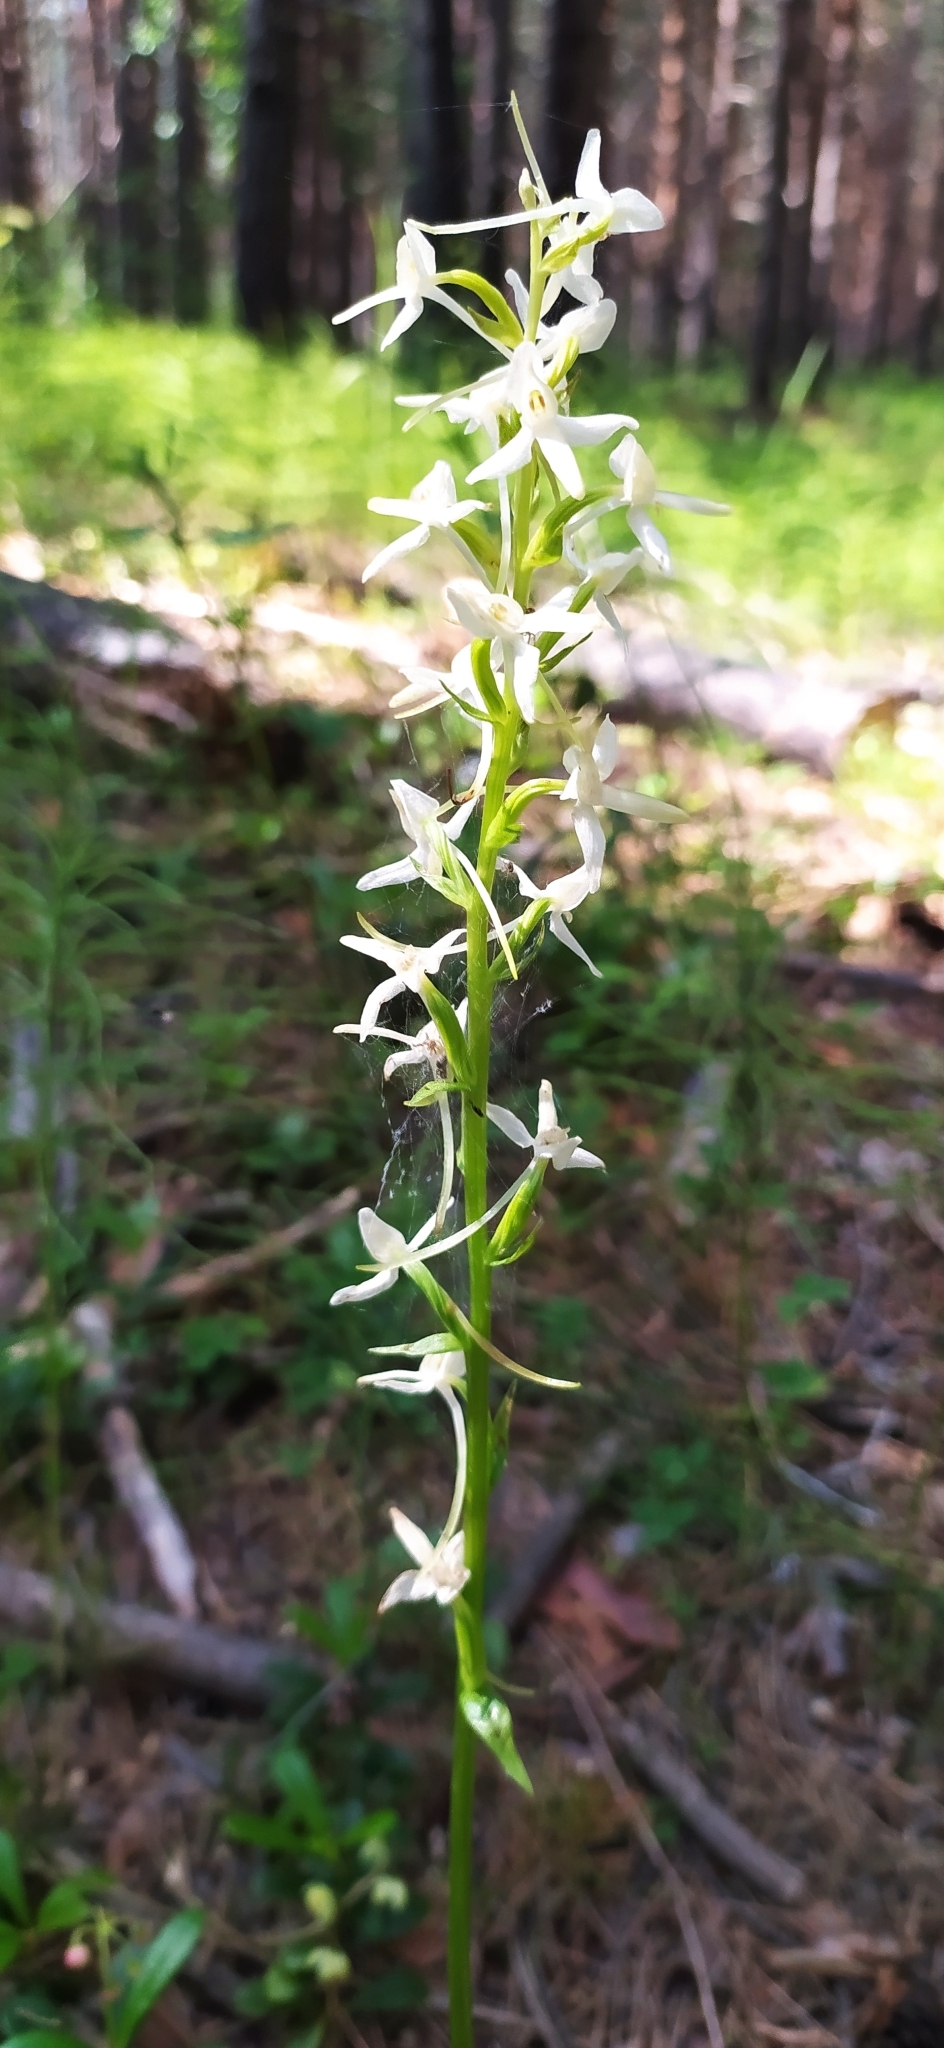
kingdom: Plantae
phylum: Tracheophyta
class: Liliopsida
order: Asparagales
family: Orchidaceae
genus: Platanthera
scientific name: Platanthera bifolia
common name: Lesser butterfly-orchid
